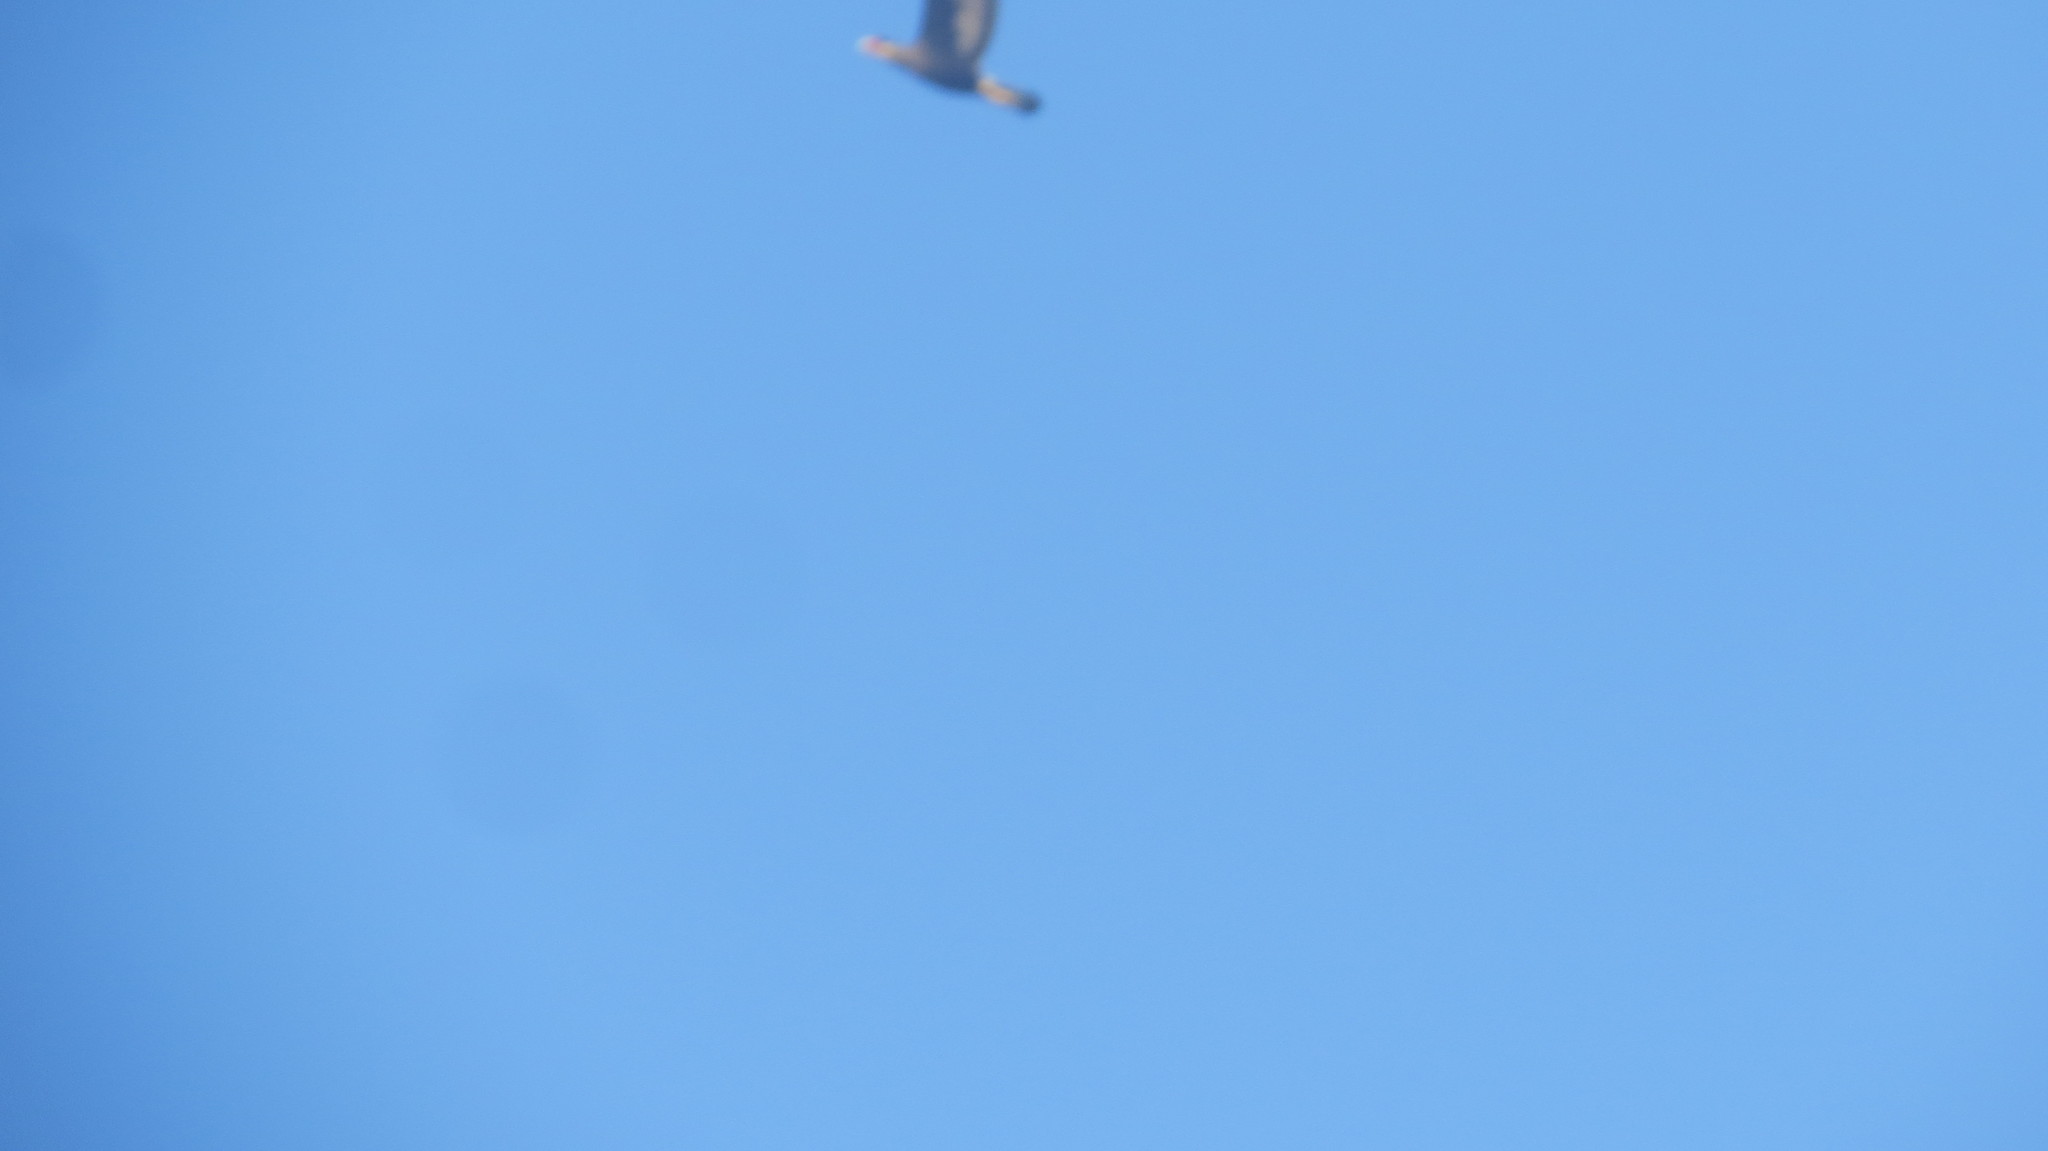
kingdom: Animalia
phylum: Chordata
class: Aves
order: Falconiformes
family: Falconidae
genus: Caracara
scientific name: Caracara plancus
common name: Southern caracara
